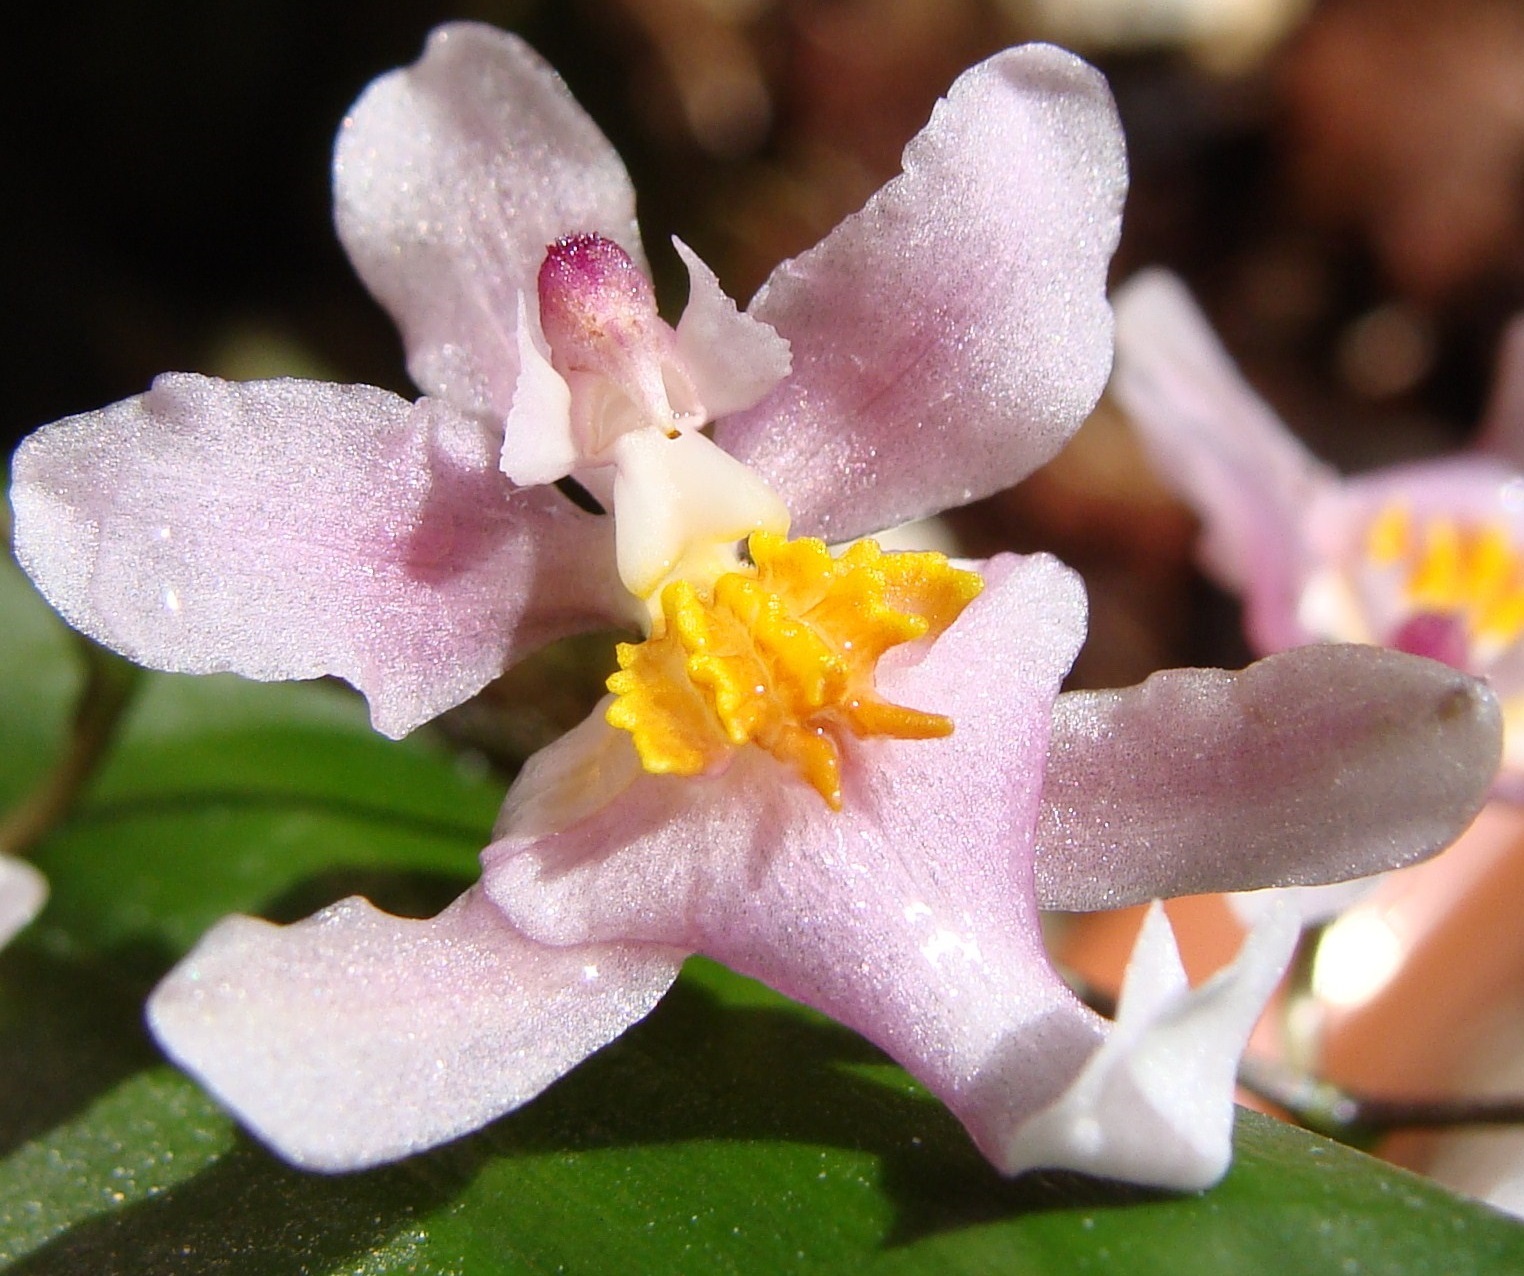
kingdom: Plantae
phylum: Tracheophyta
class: Liliopsida
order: Asparagales
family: Orchidaceae
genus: Oncidium
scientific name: Oncidium sotoanum
